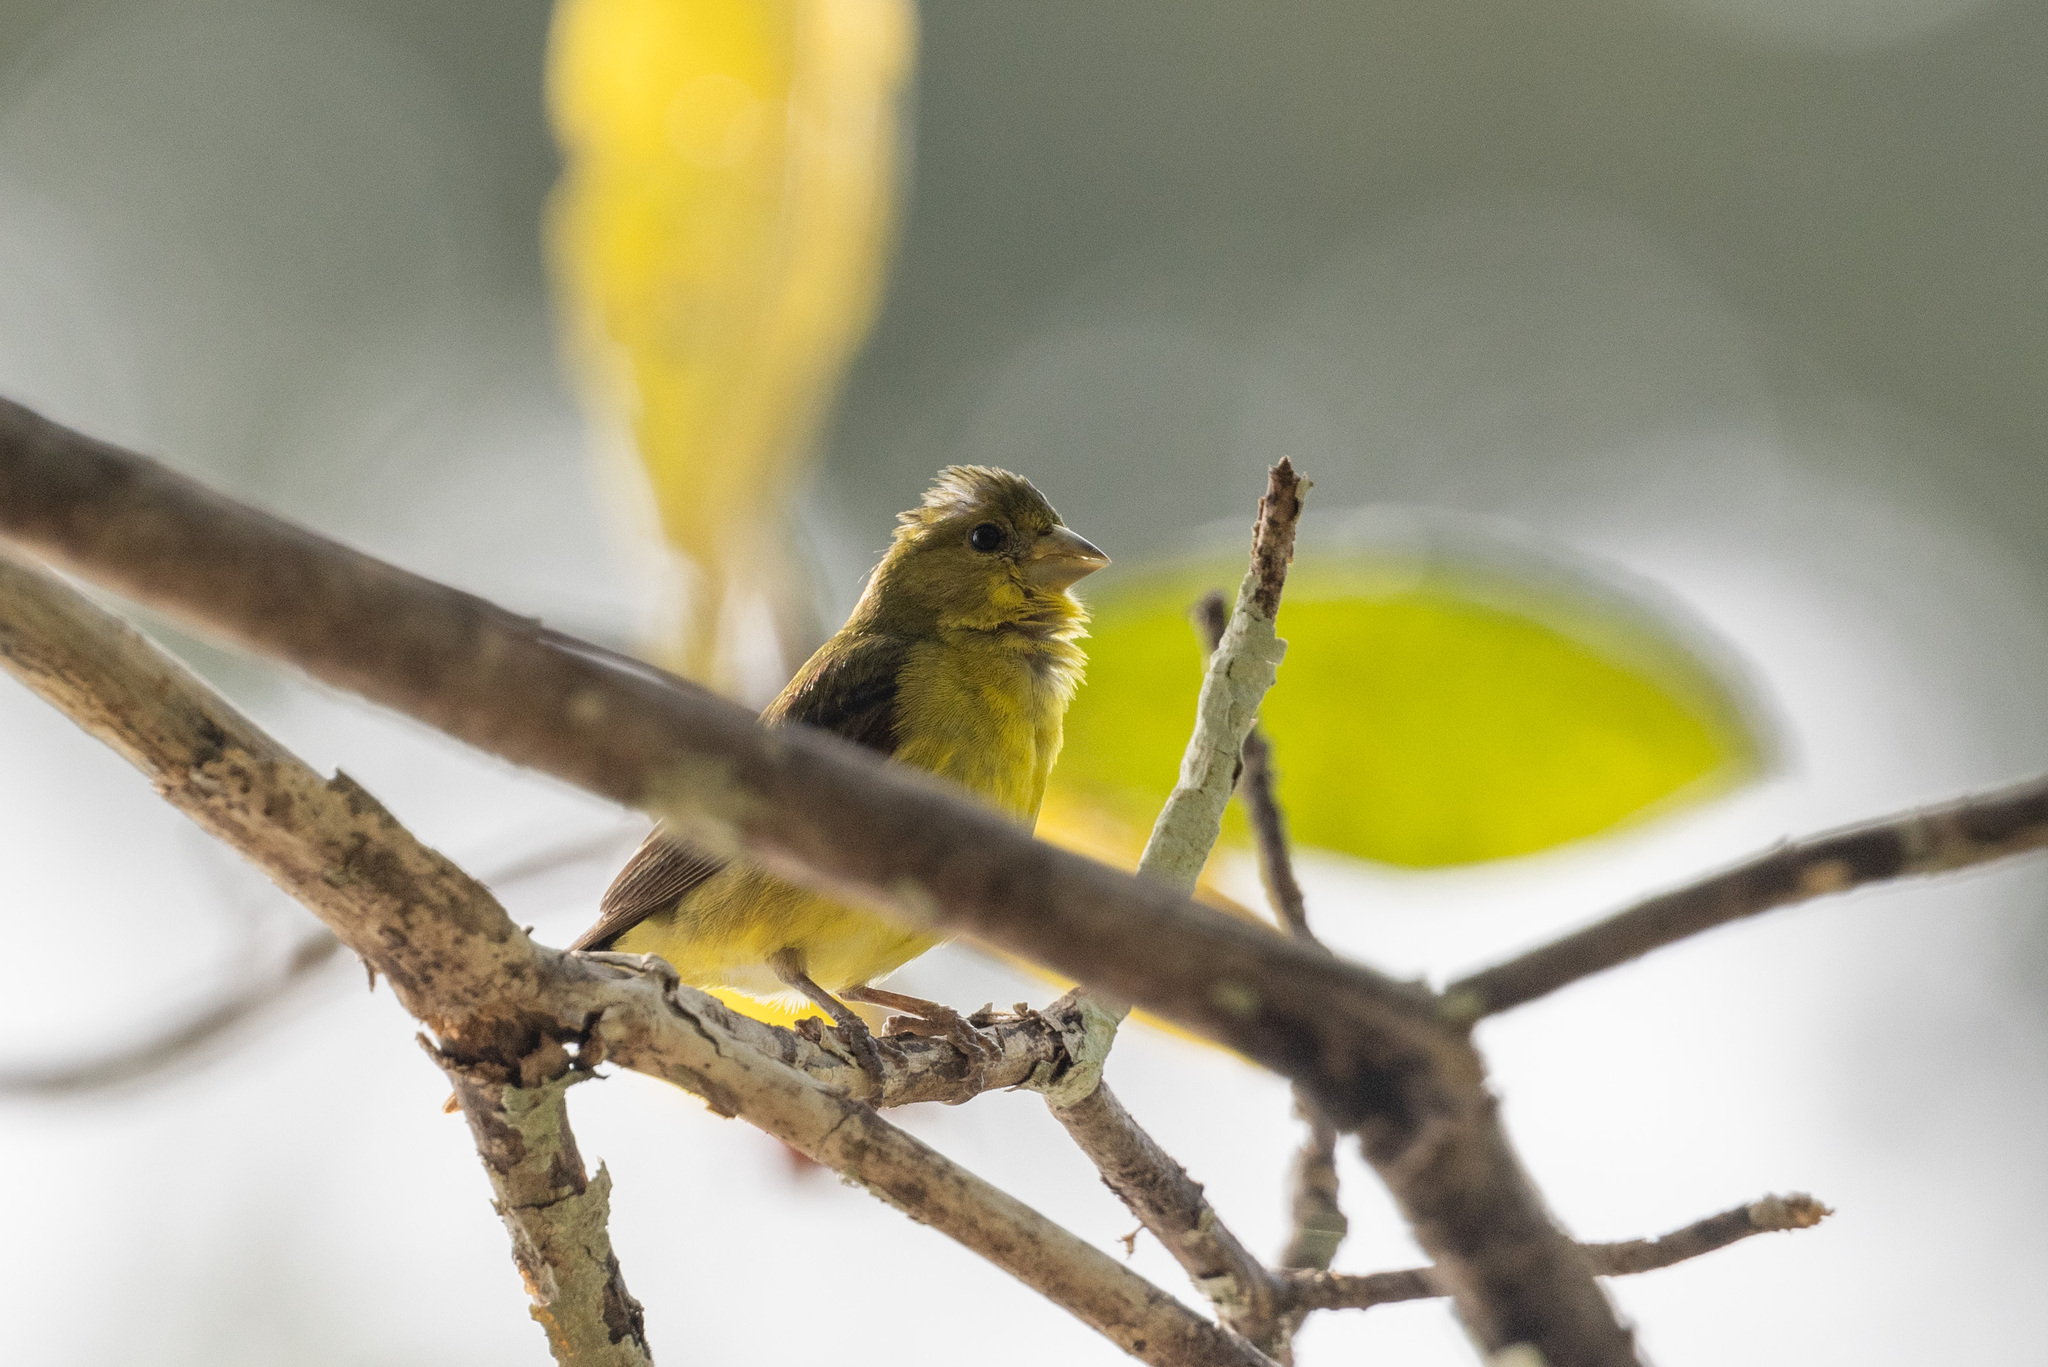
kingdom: Animalia
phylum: Chordata
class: Aves
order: Passeriformes
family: Fringillidae
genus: Spinus
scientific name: Spinus psaltria
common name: Lesser goldfinch
